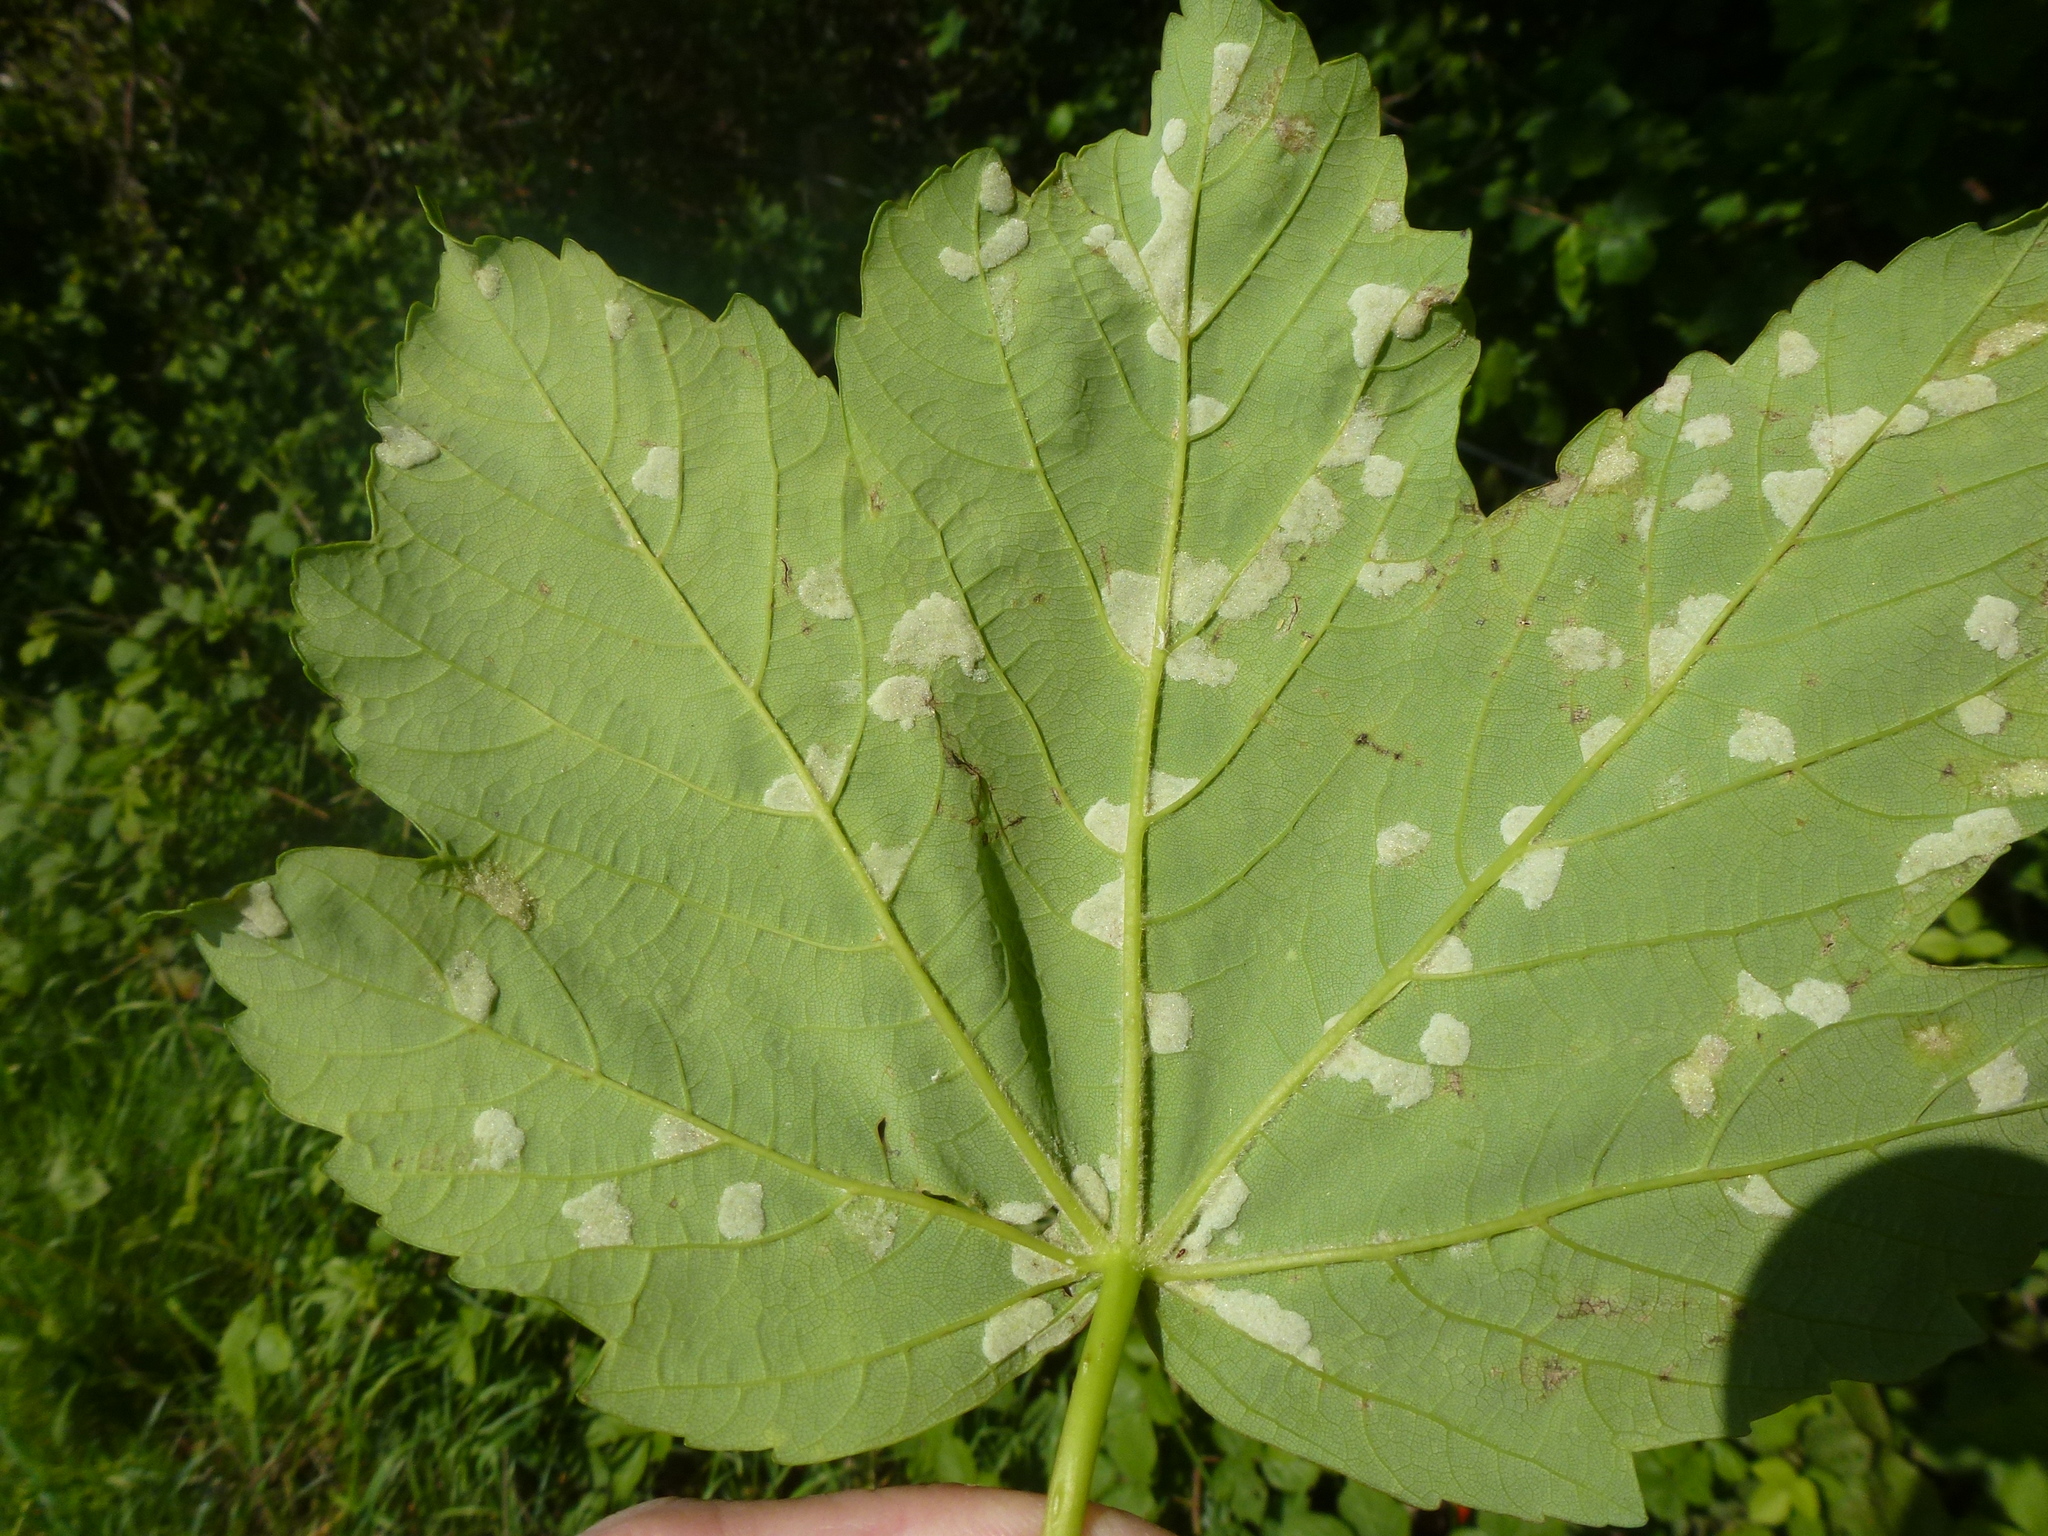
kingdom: Animalia
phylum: Arthropoda
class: Arachnida
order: Trombidiformes
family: Eriophyidae
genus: Aceria
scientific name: Aceria pseudoplatani
